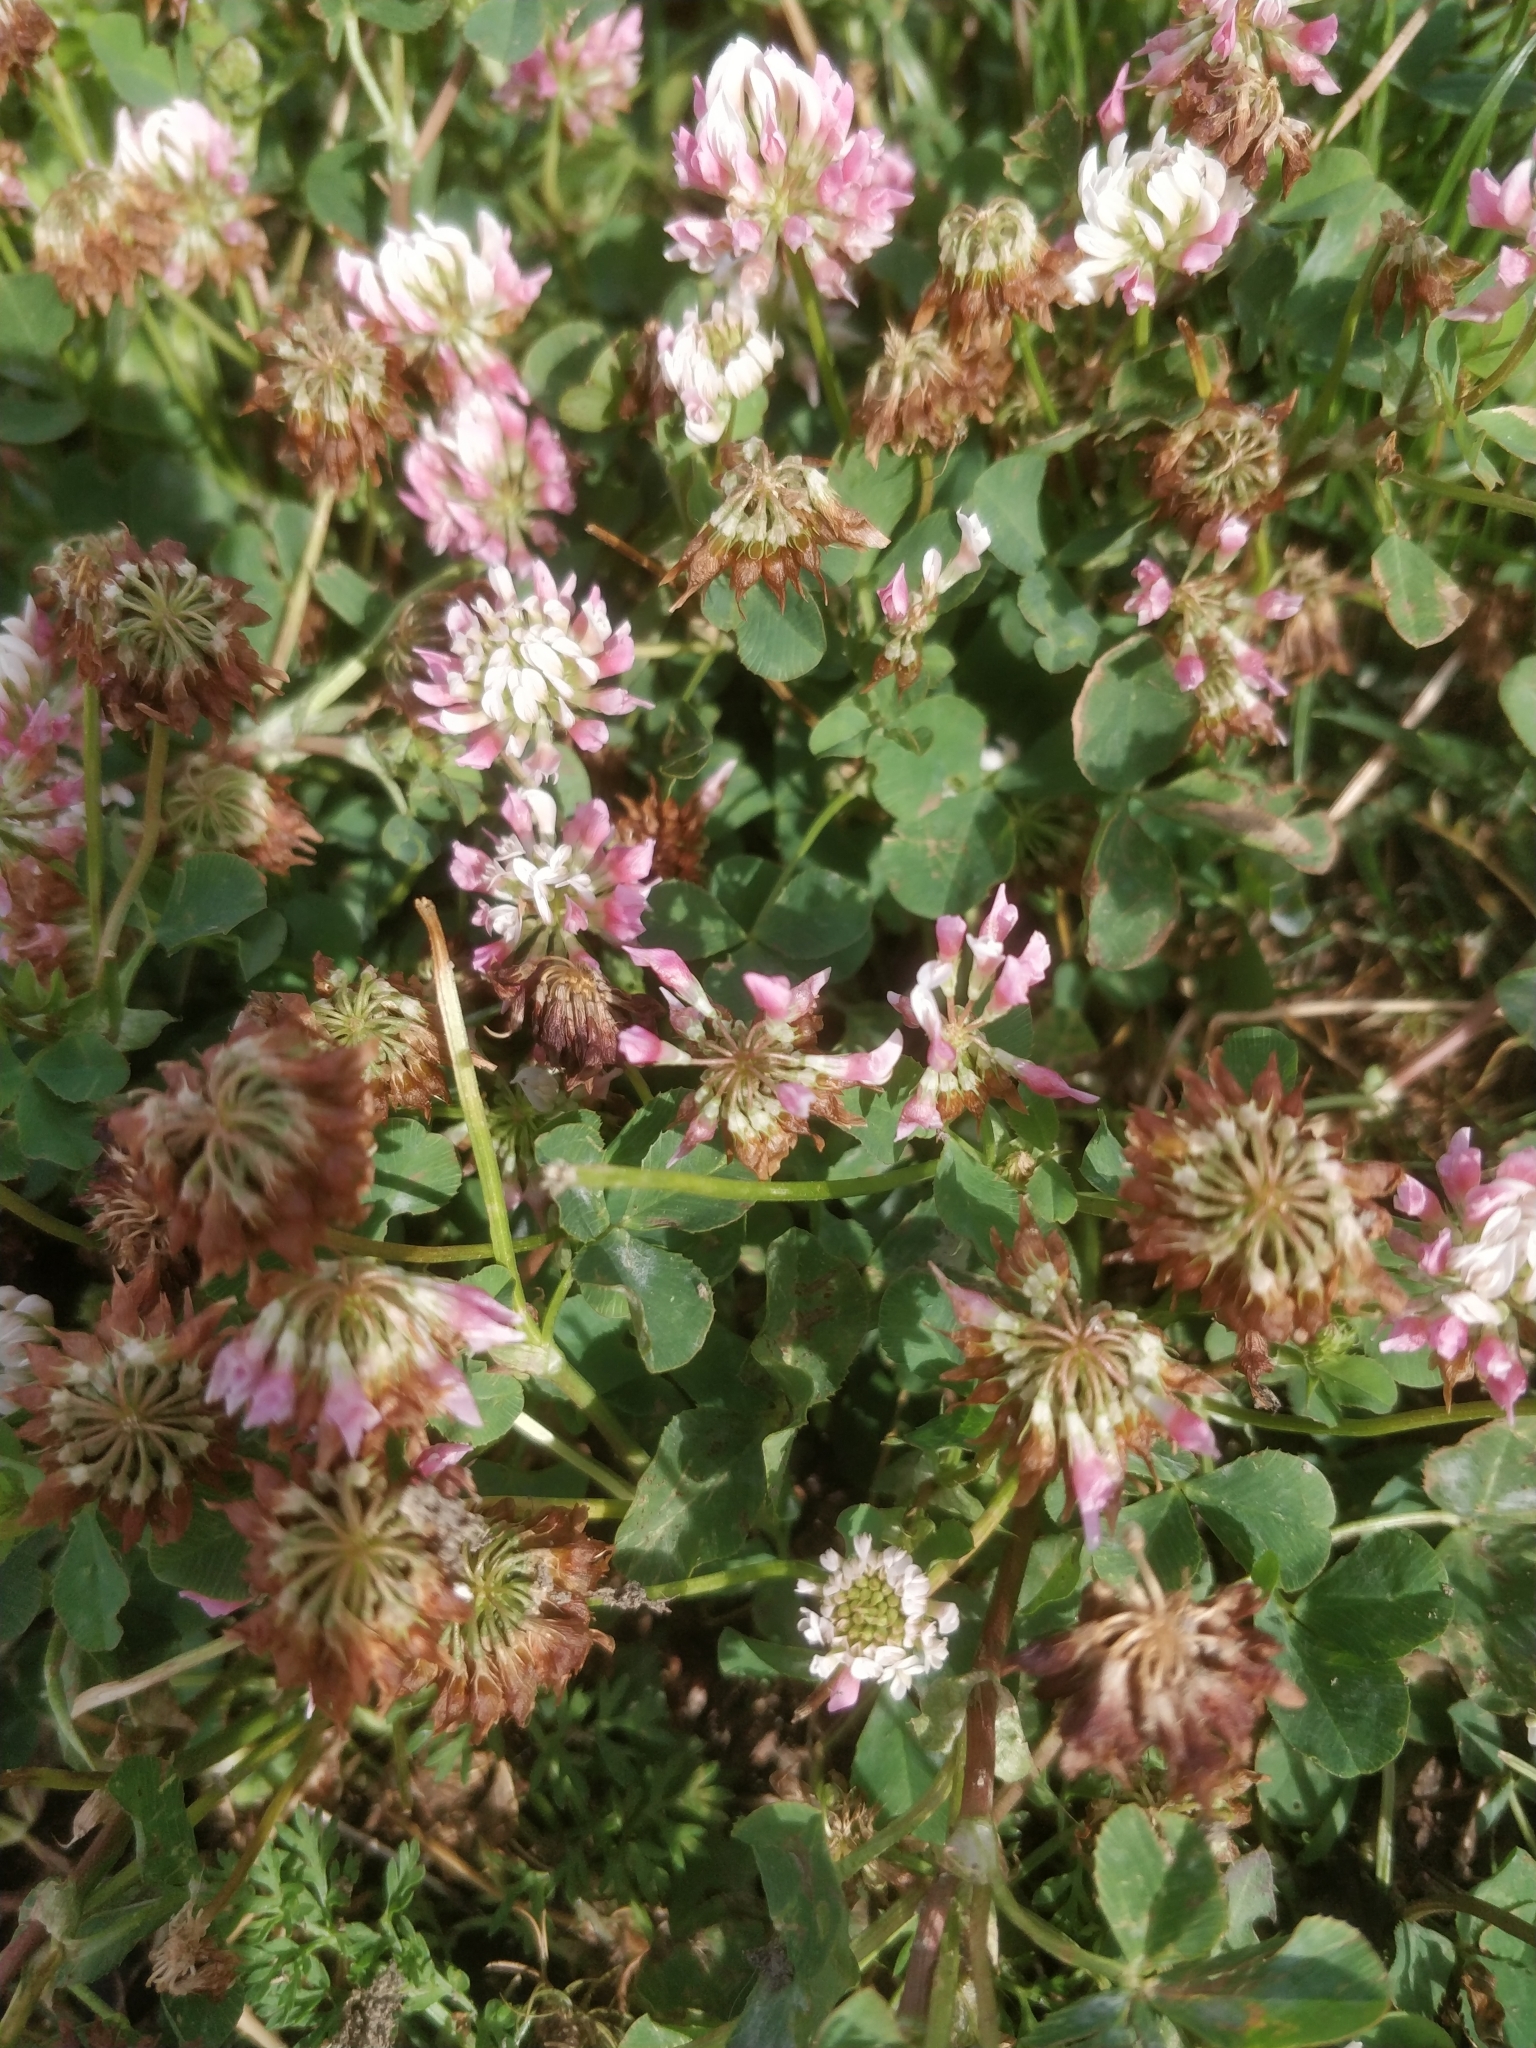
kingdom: Plantae
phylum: Tracheophyta
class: Magnoliopsida
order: Fabales
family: Fabaceae
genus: Trifolium
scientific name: Trifolium hybridum
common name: Alsike clover
